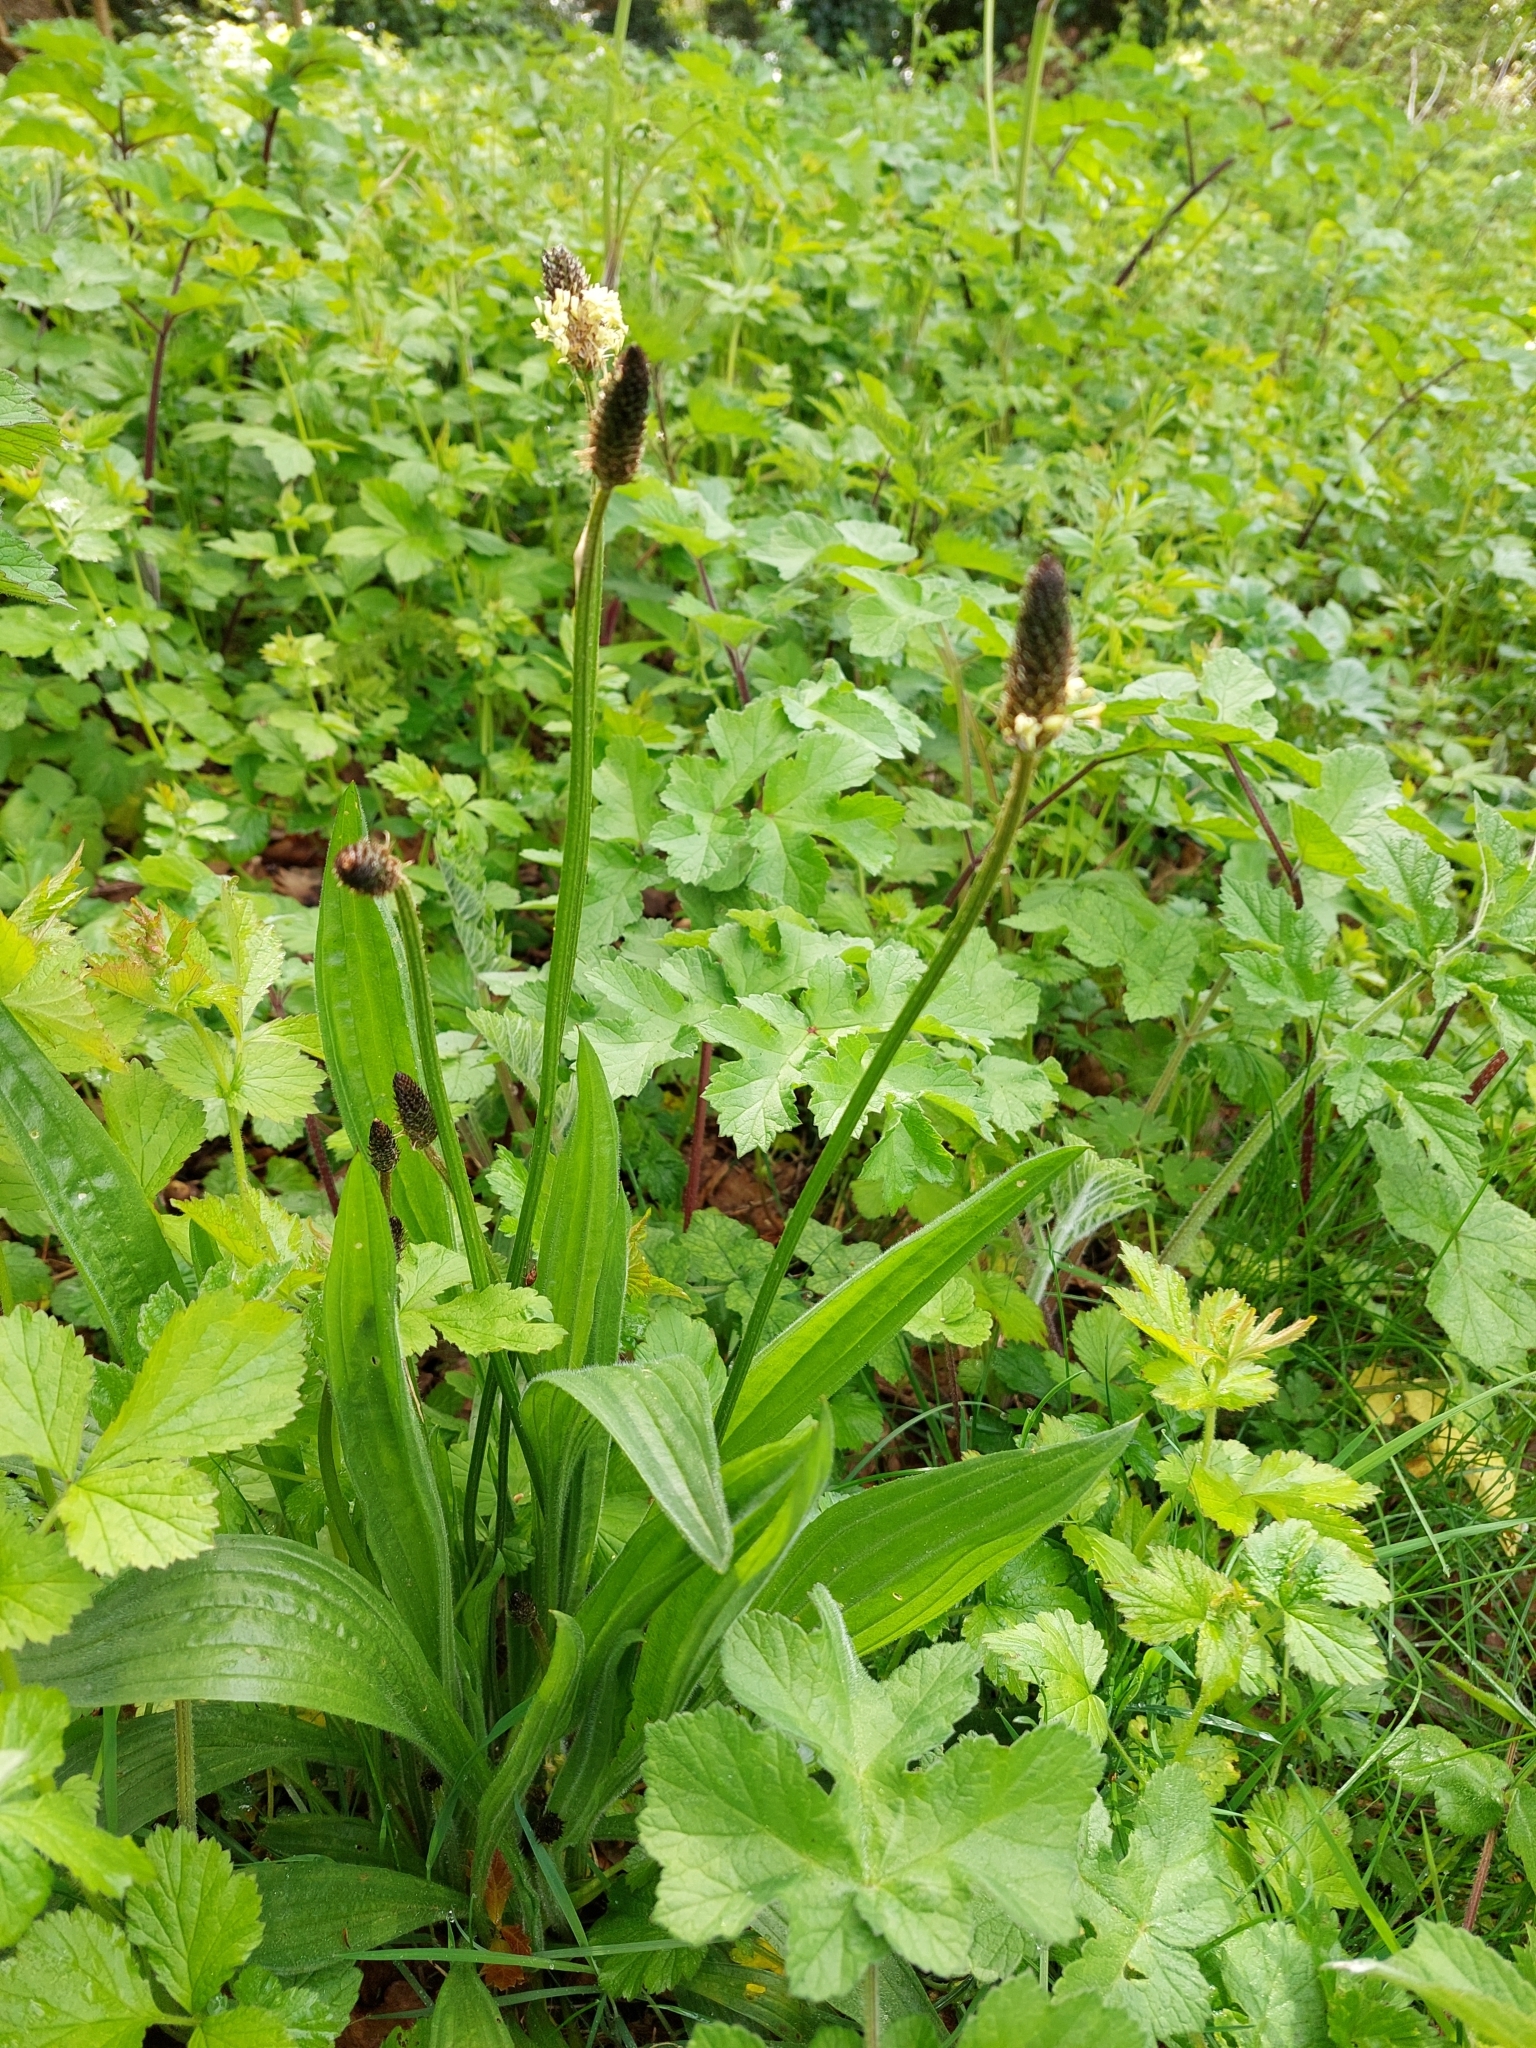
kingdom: Plantae
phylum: Tracheophyta
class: Magnoliopsida
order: Lamiales
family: Plantaginaceae
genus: Plantago
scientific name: Plantago lanceolata
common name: Ribwort plantain
